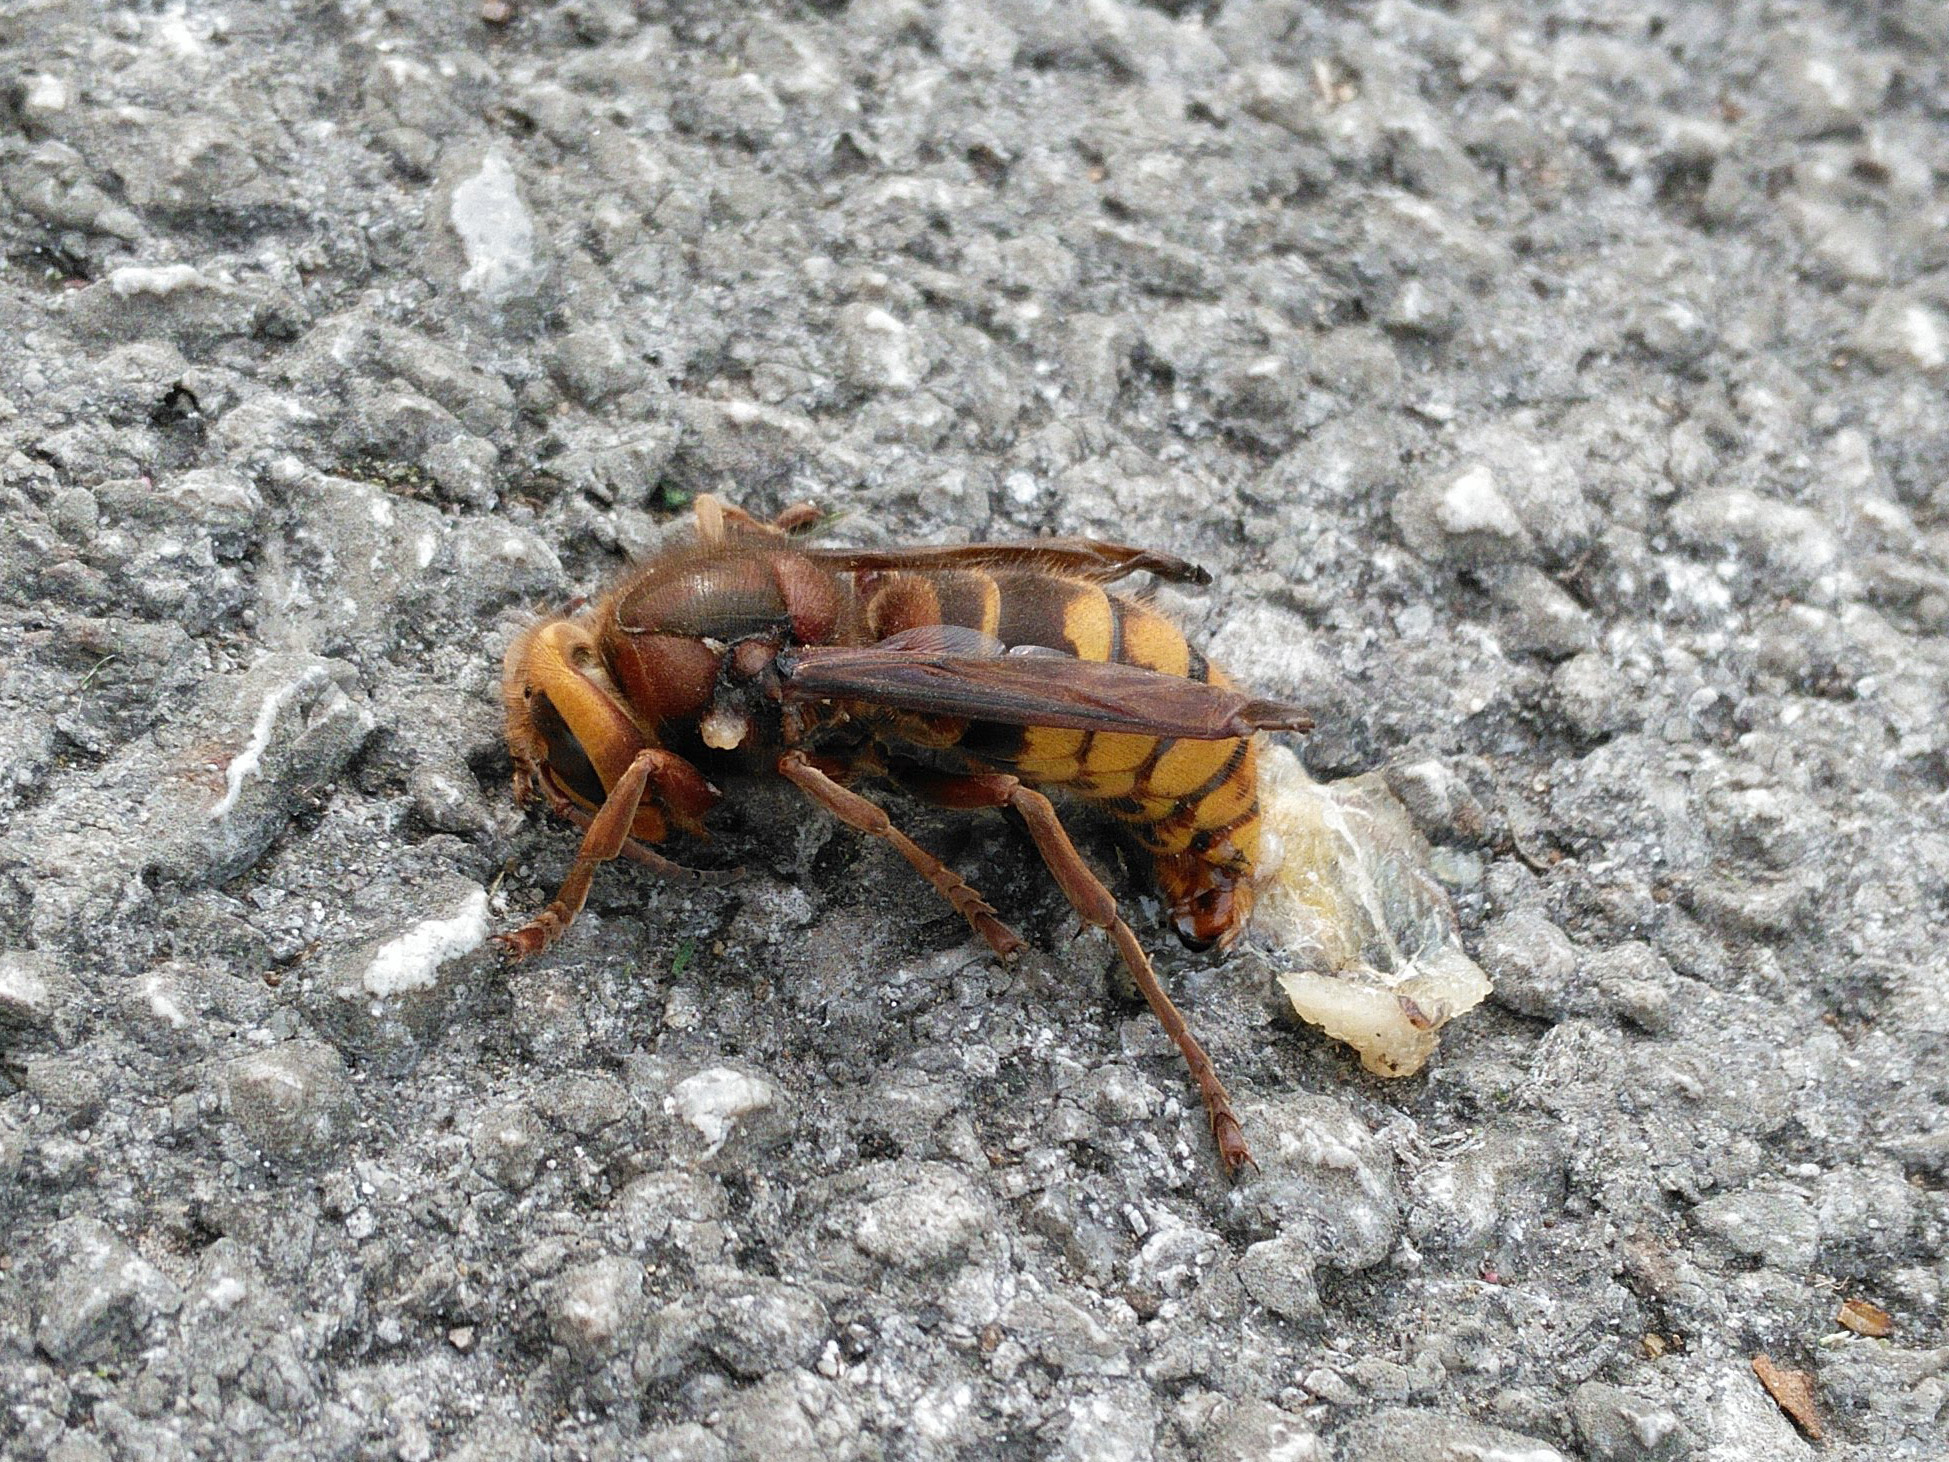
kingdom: Animalia
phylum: Arthropoda
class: Insecta
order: Hymenoptera
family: Vespidae
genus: Vespa
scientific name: Vespa crabro
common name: Hornet
